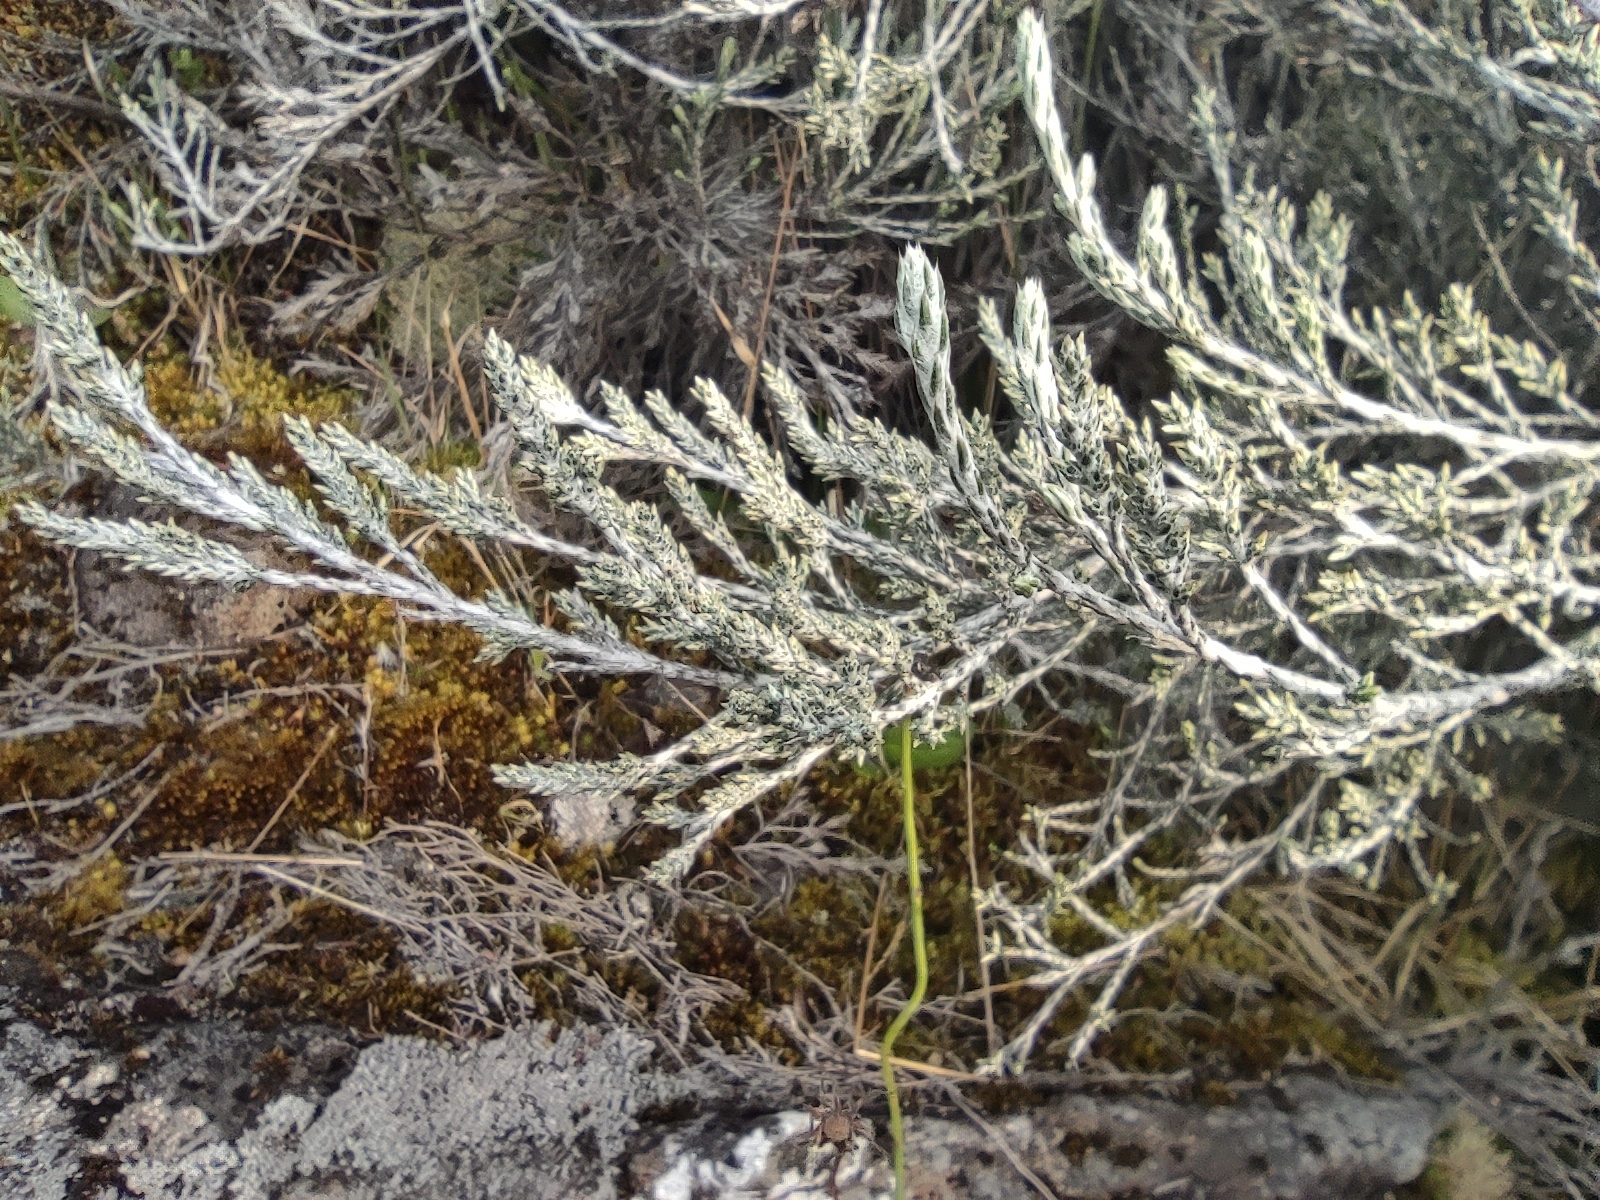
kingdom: Plantae
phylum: Tracheophyta
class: Magnoliopsida
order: Asterales
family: Asteraceae
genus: Seriphium
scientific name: Seriphium passerinoides
